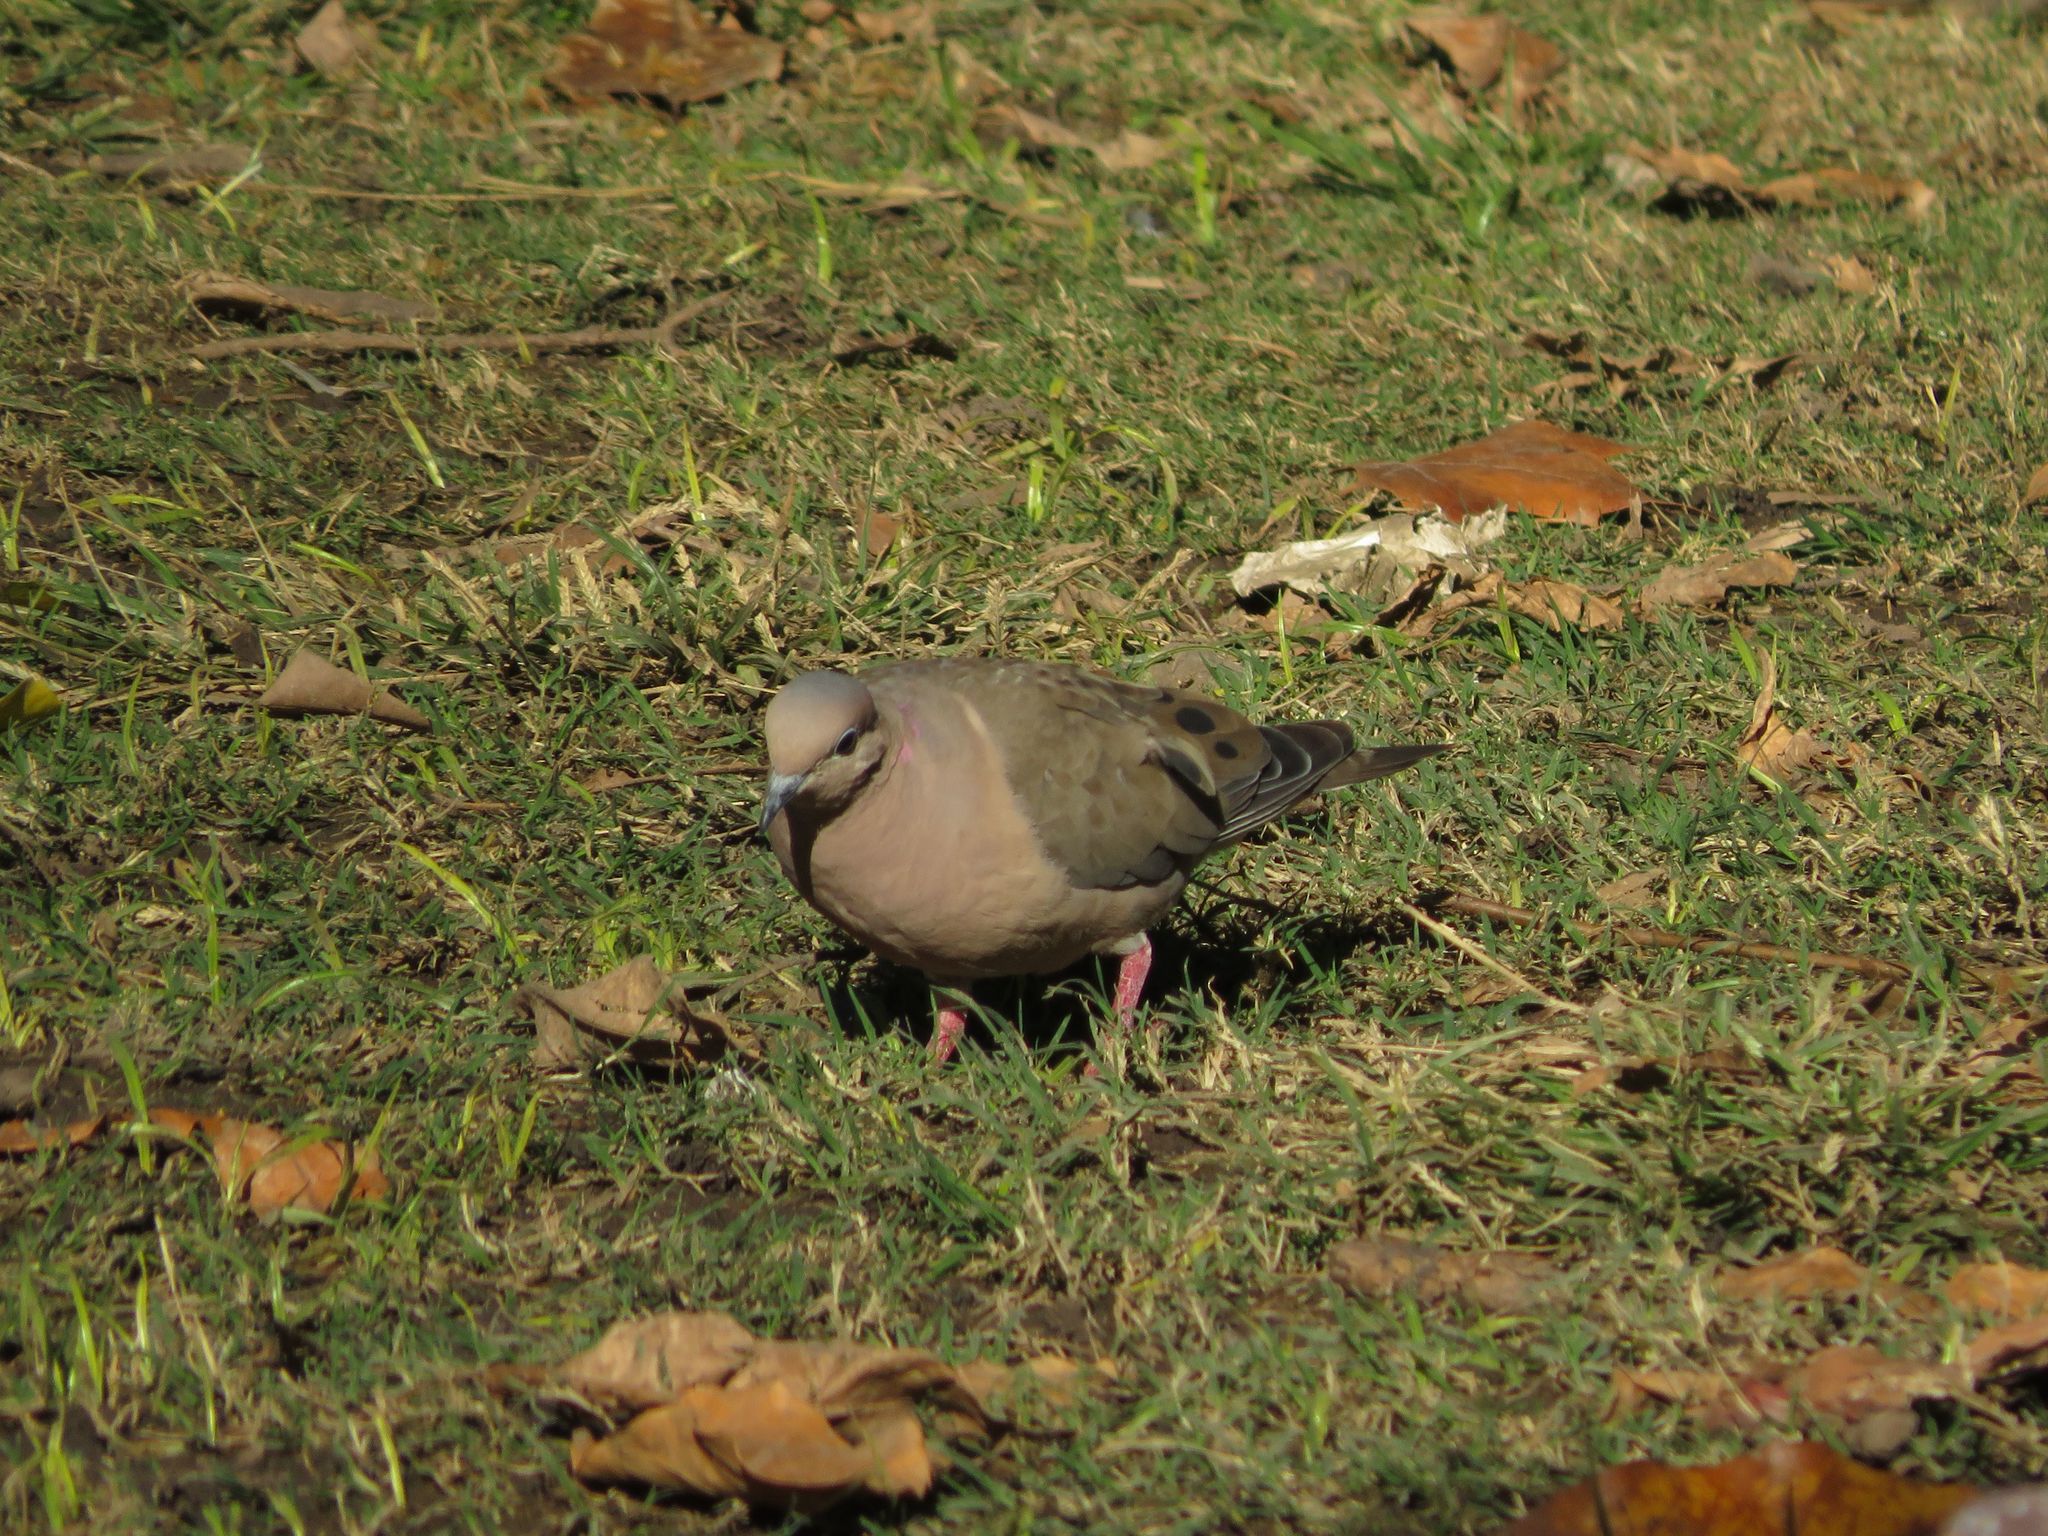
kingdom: Animalia
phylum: Chordata
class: Aves
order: Columbiformes
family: Columbidae
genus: Zenaida
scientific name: Zenaida auriculata
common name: Eared dove
